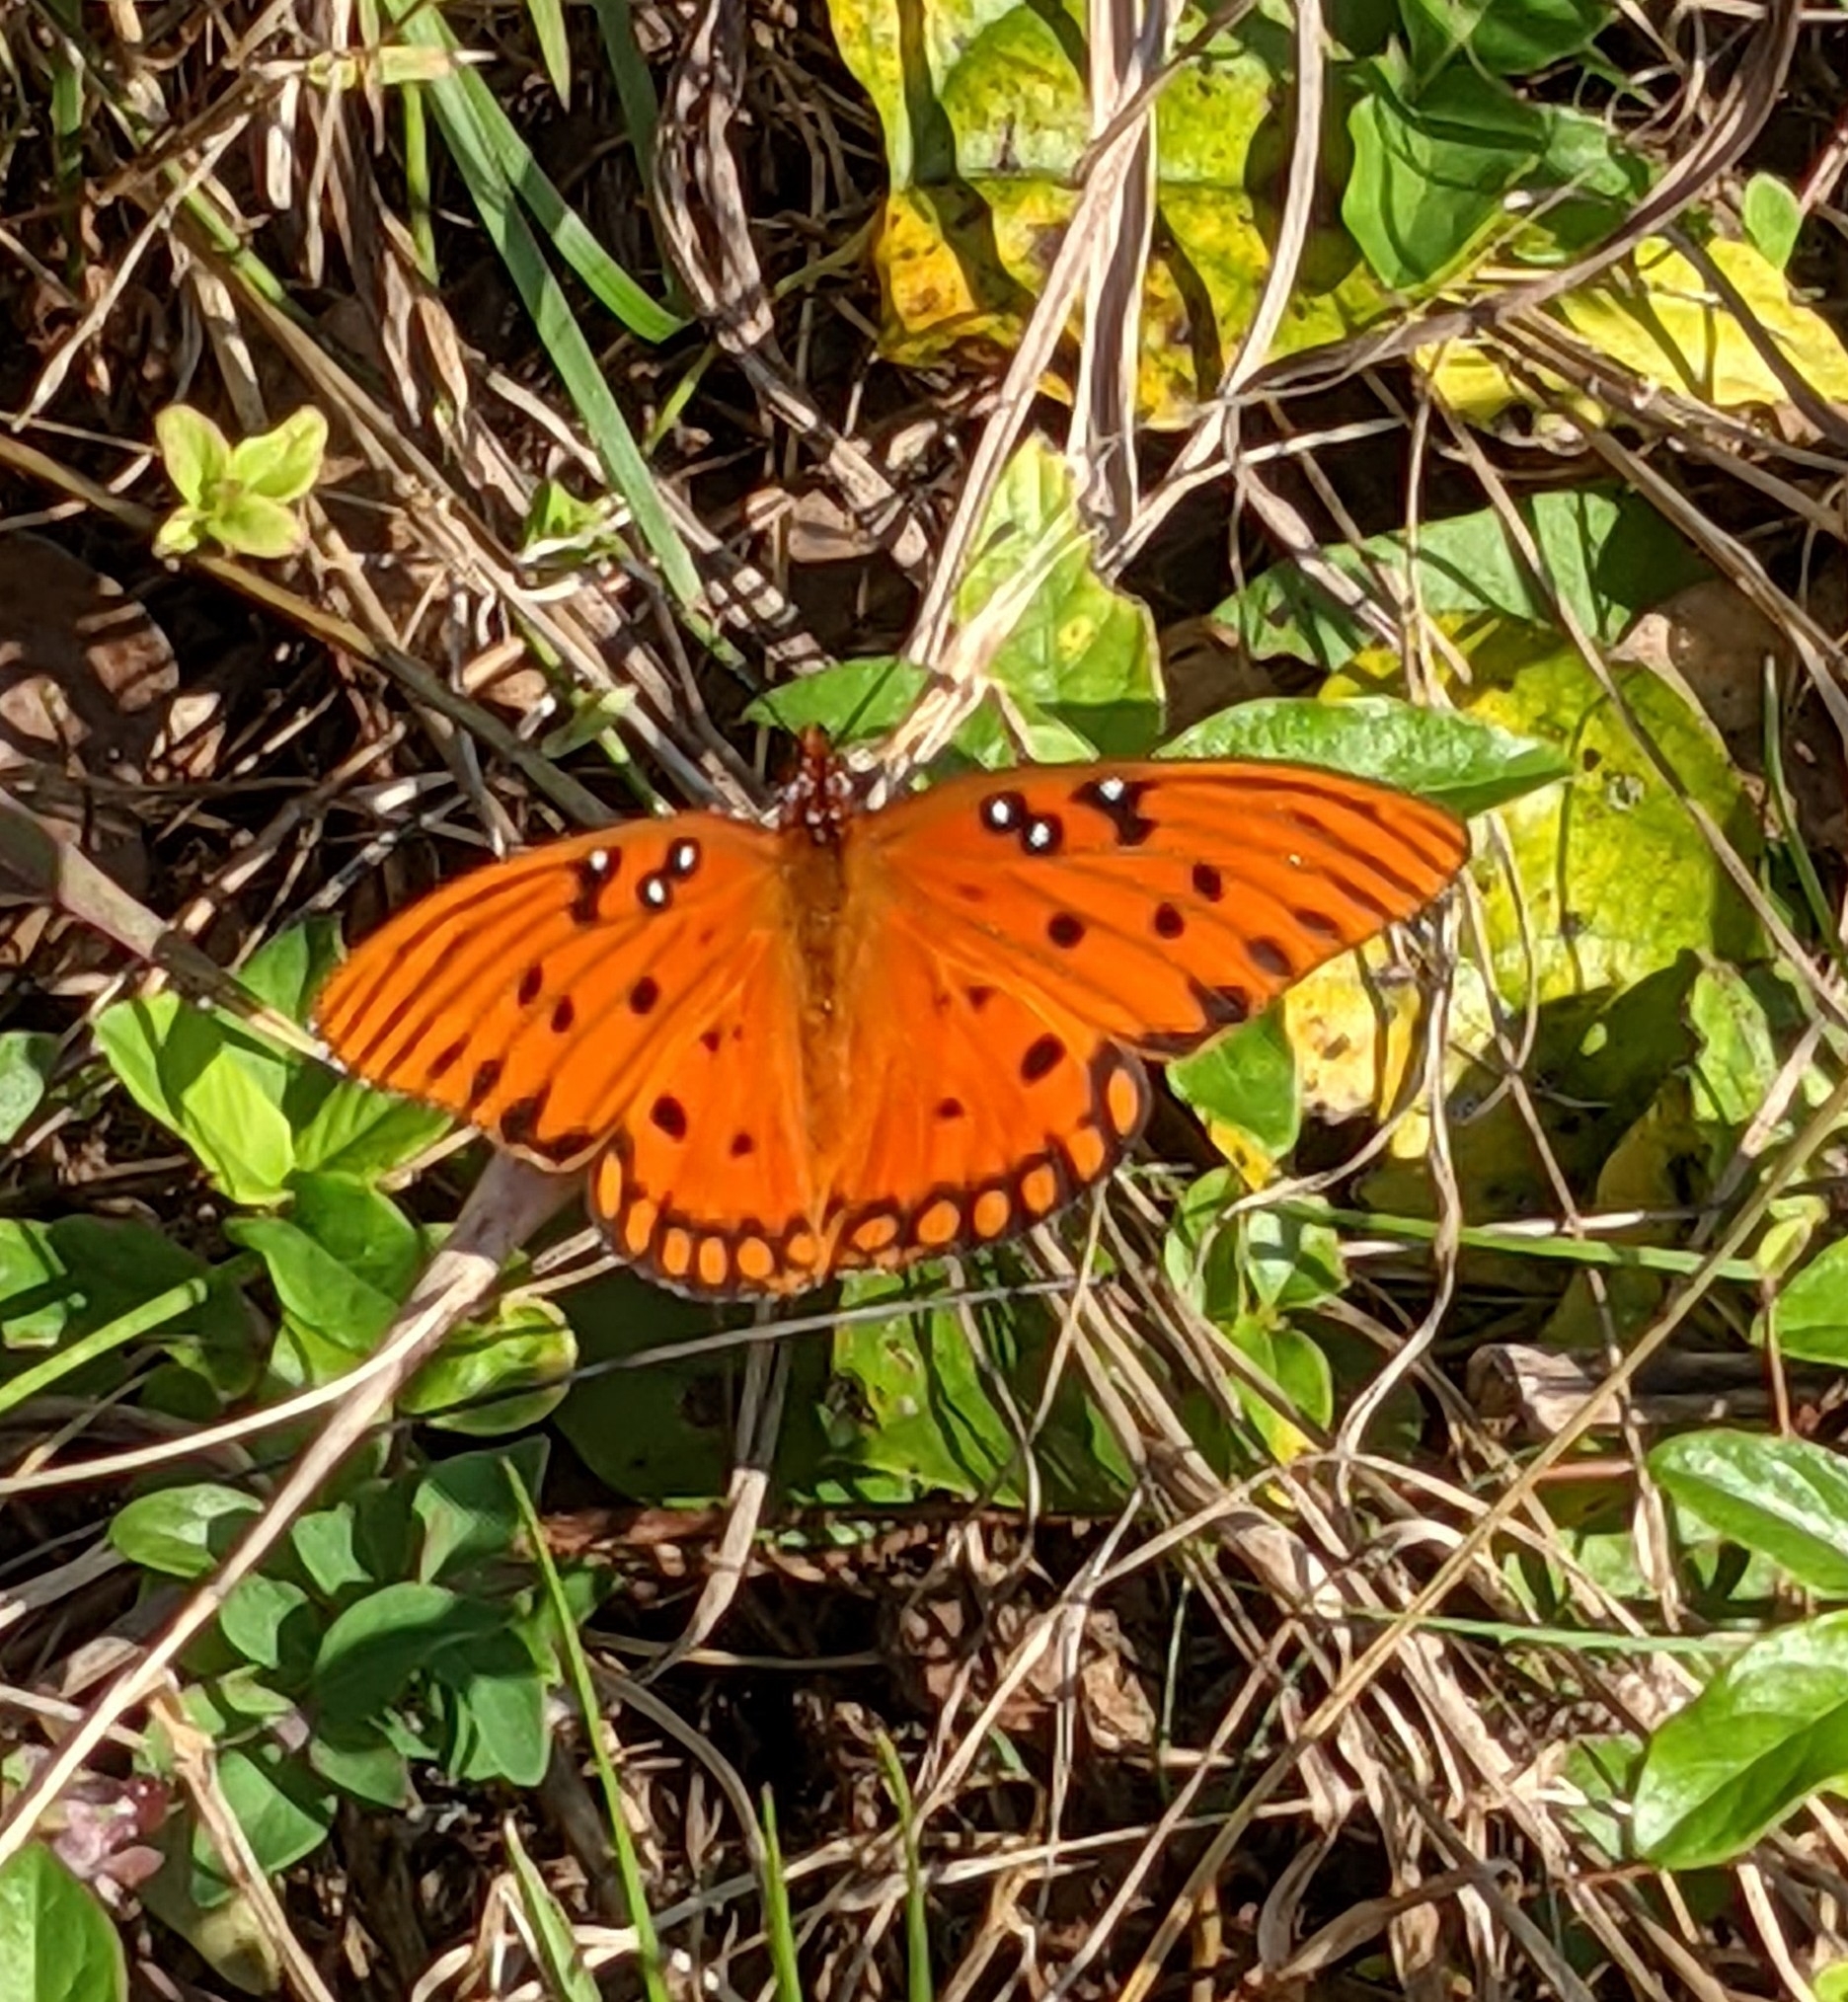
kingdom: Animalia
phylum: Arthropoda
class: Insecta
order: Lepidoptera
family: Nymphalidae
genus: Dione
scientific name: Dione vanillae
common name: Gulf fritillary
